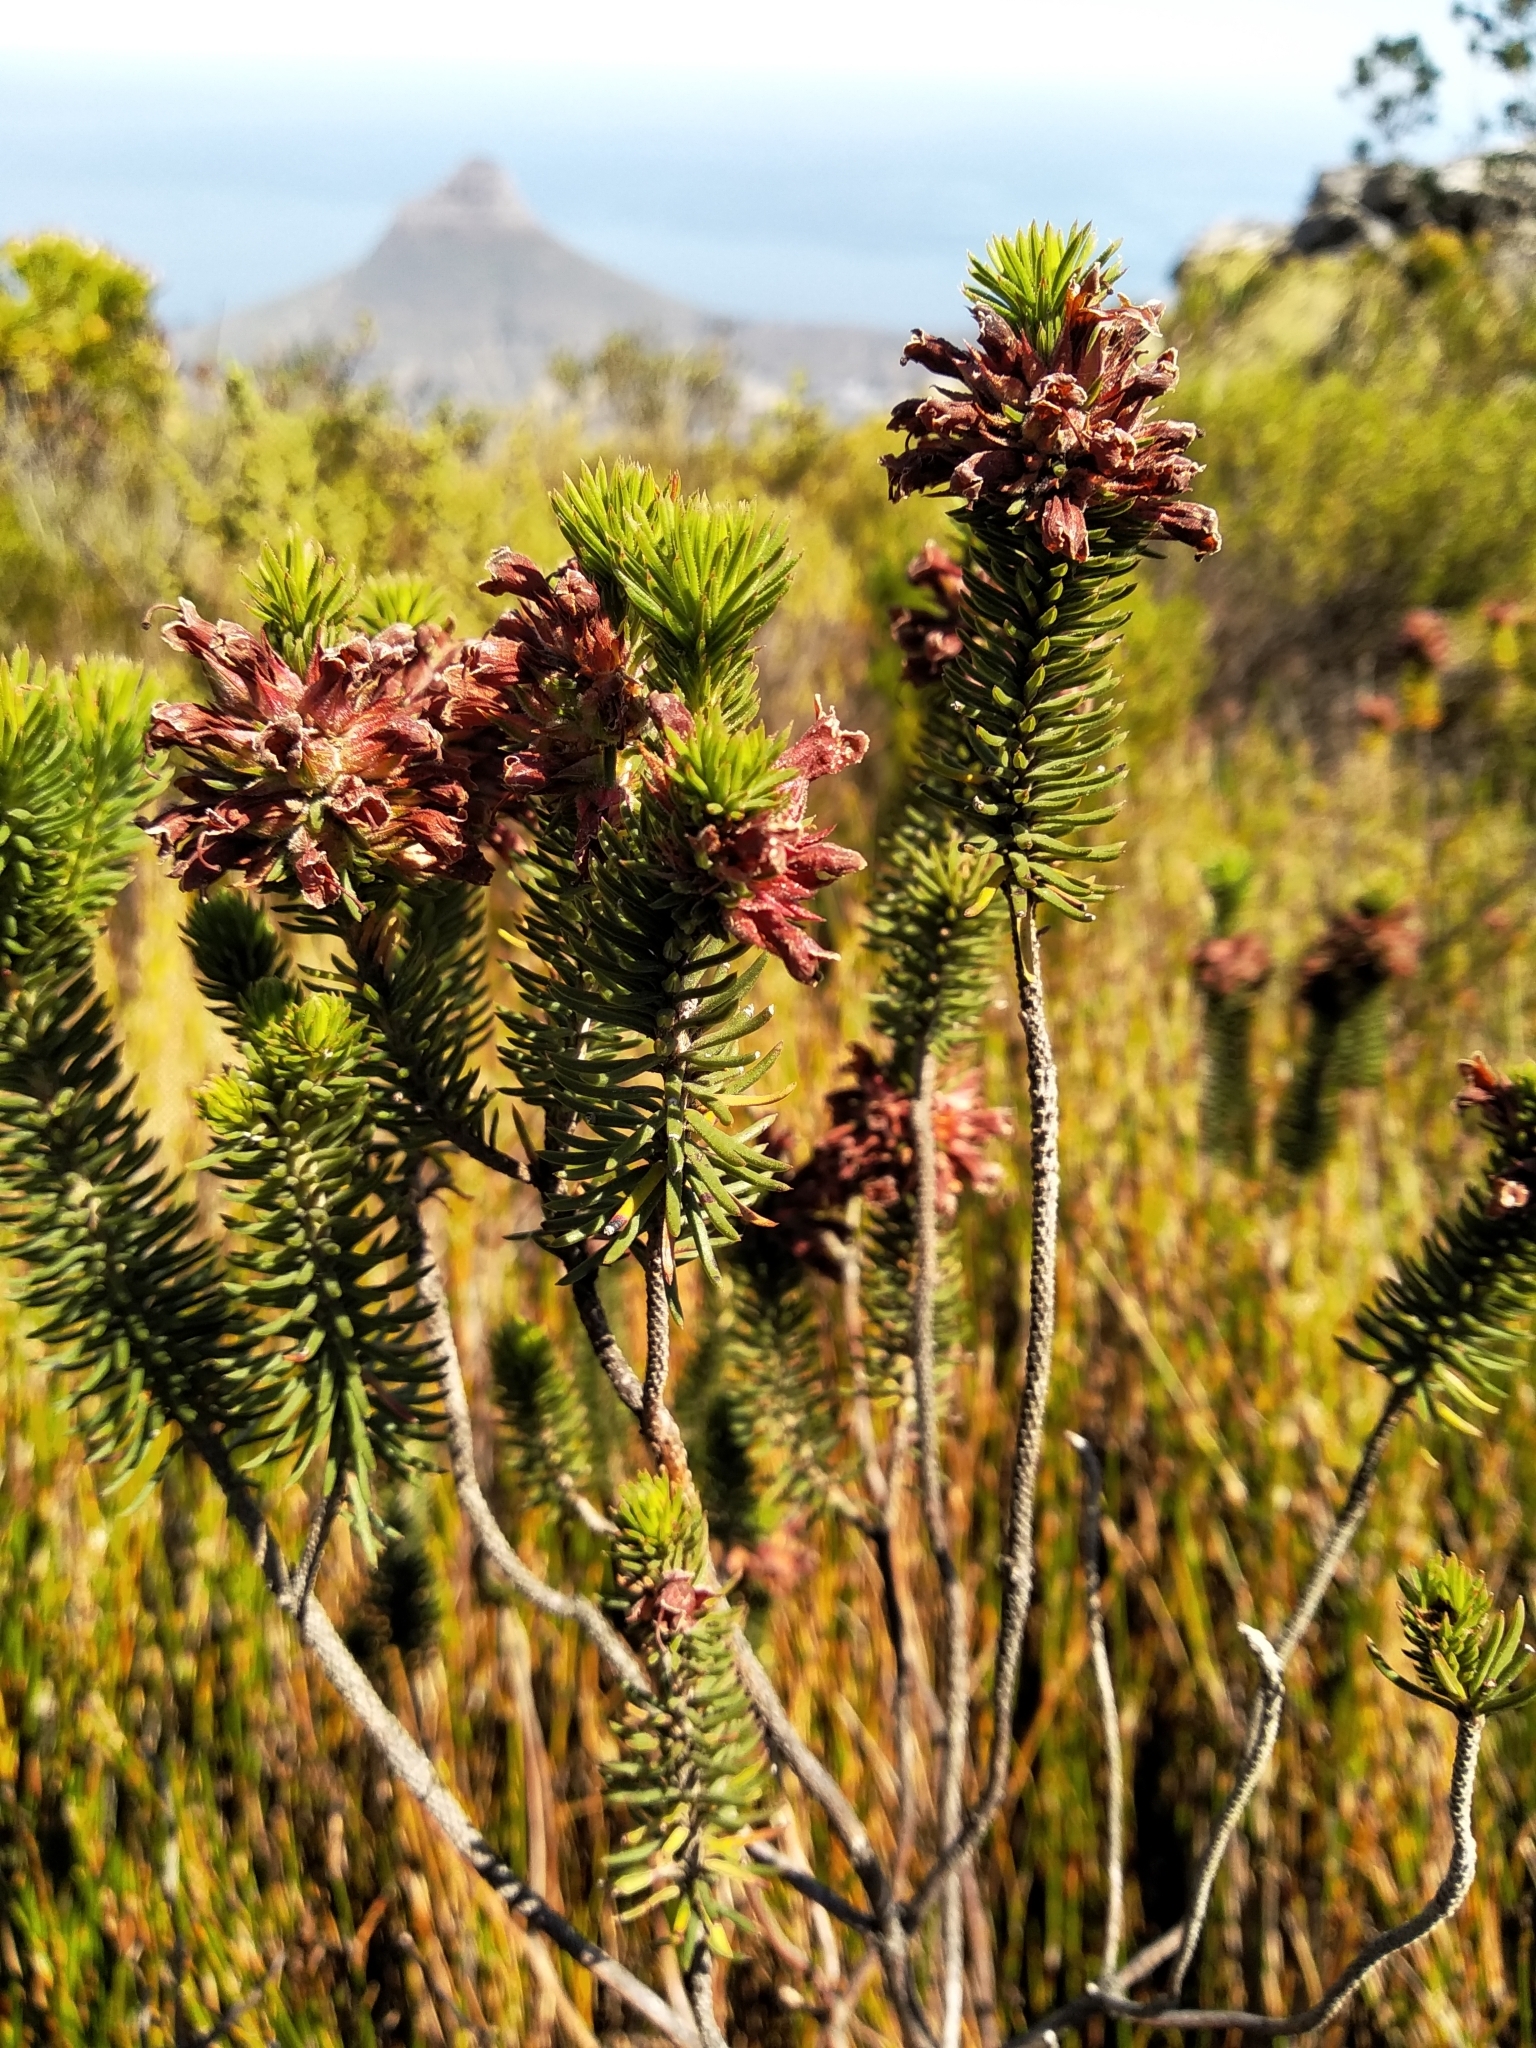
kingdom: Plantae
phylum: Tracheophyta
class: Magnoliopsida
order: Ericales
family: Ericaceae
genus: Erica
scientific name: Erica abietina
